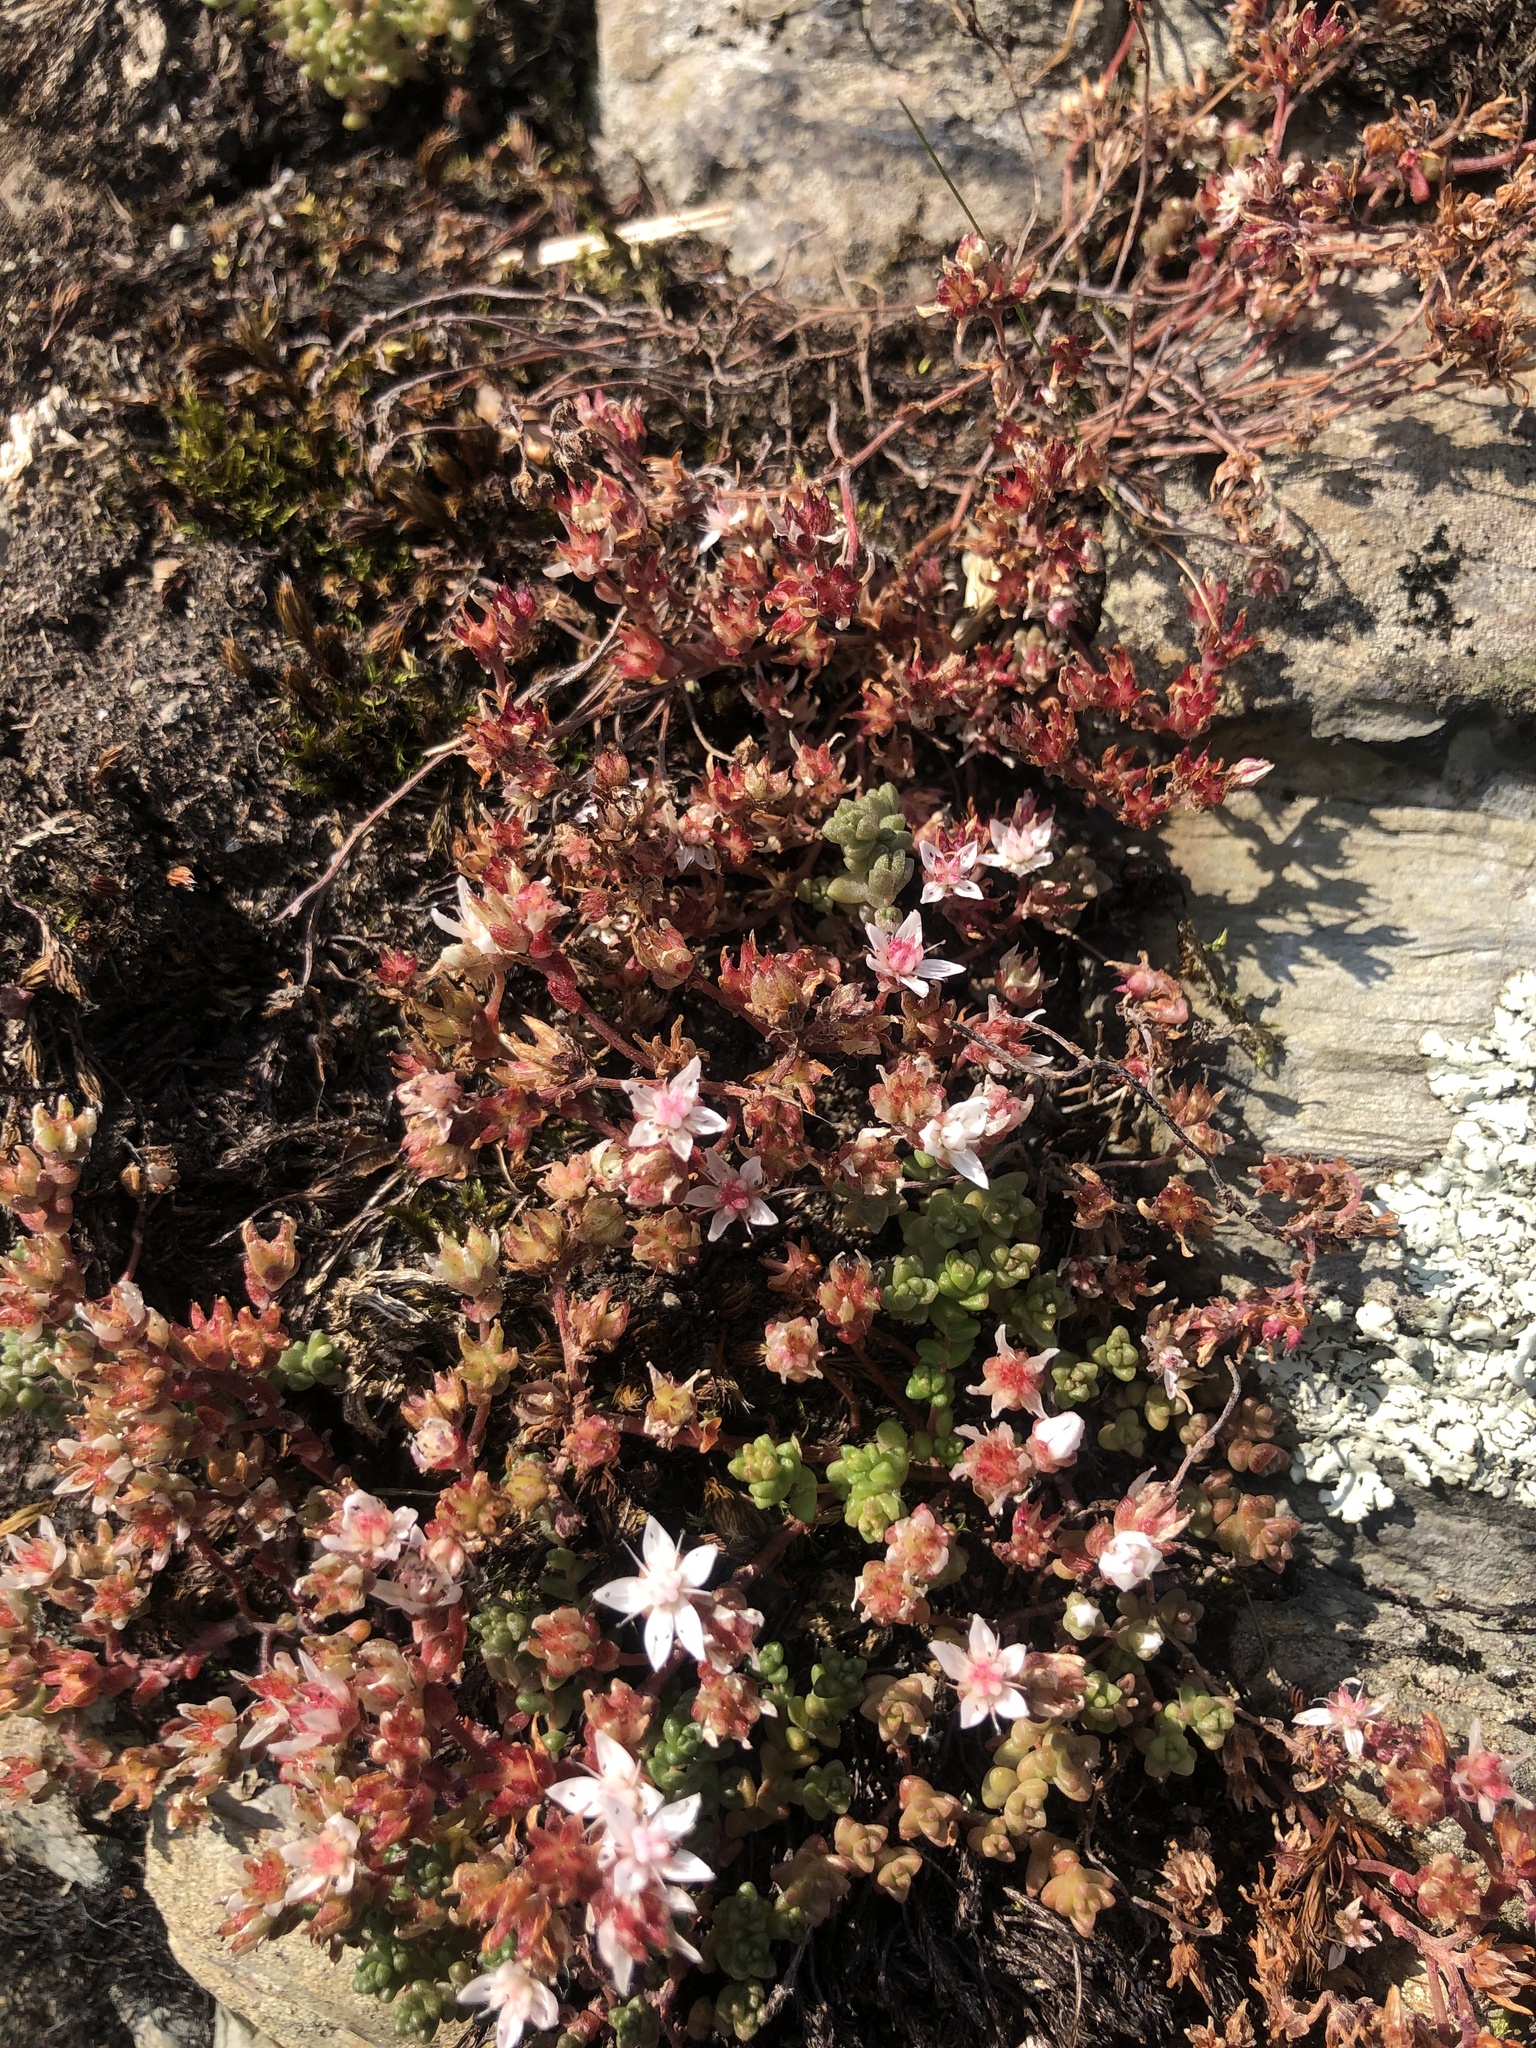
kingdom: Plantae
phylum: Tracheophyta
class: Magnoliopsida
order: Saxifragales
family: Crassulaceae
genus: Sedum
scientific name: Sedum anglicum
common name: English stonecrop
